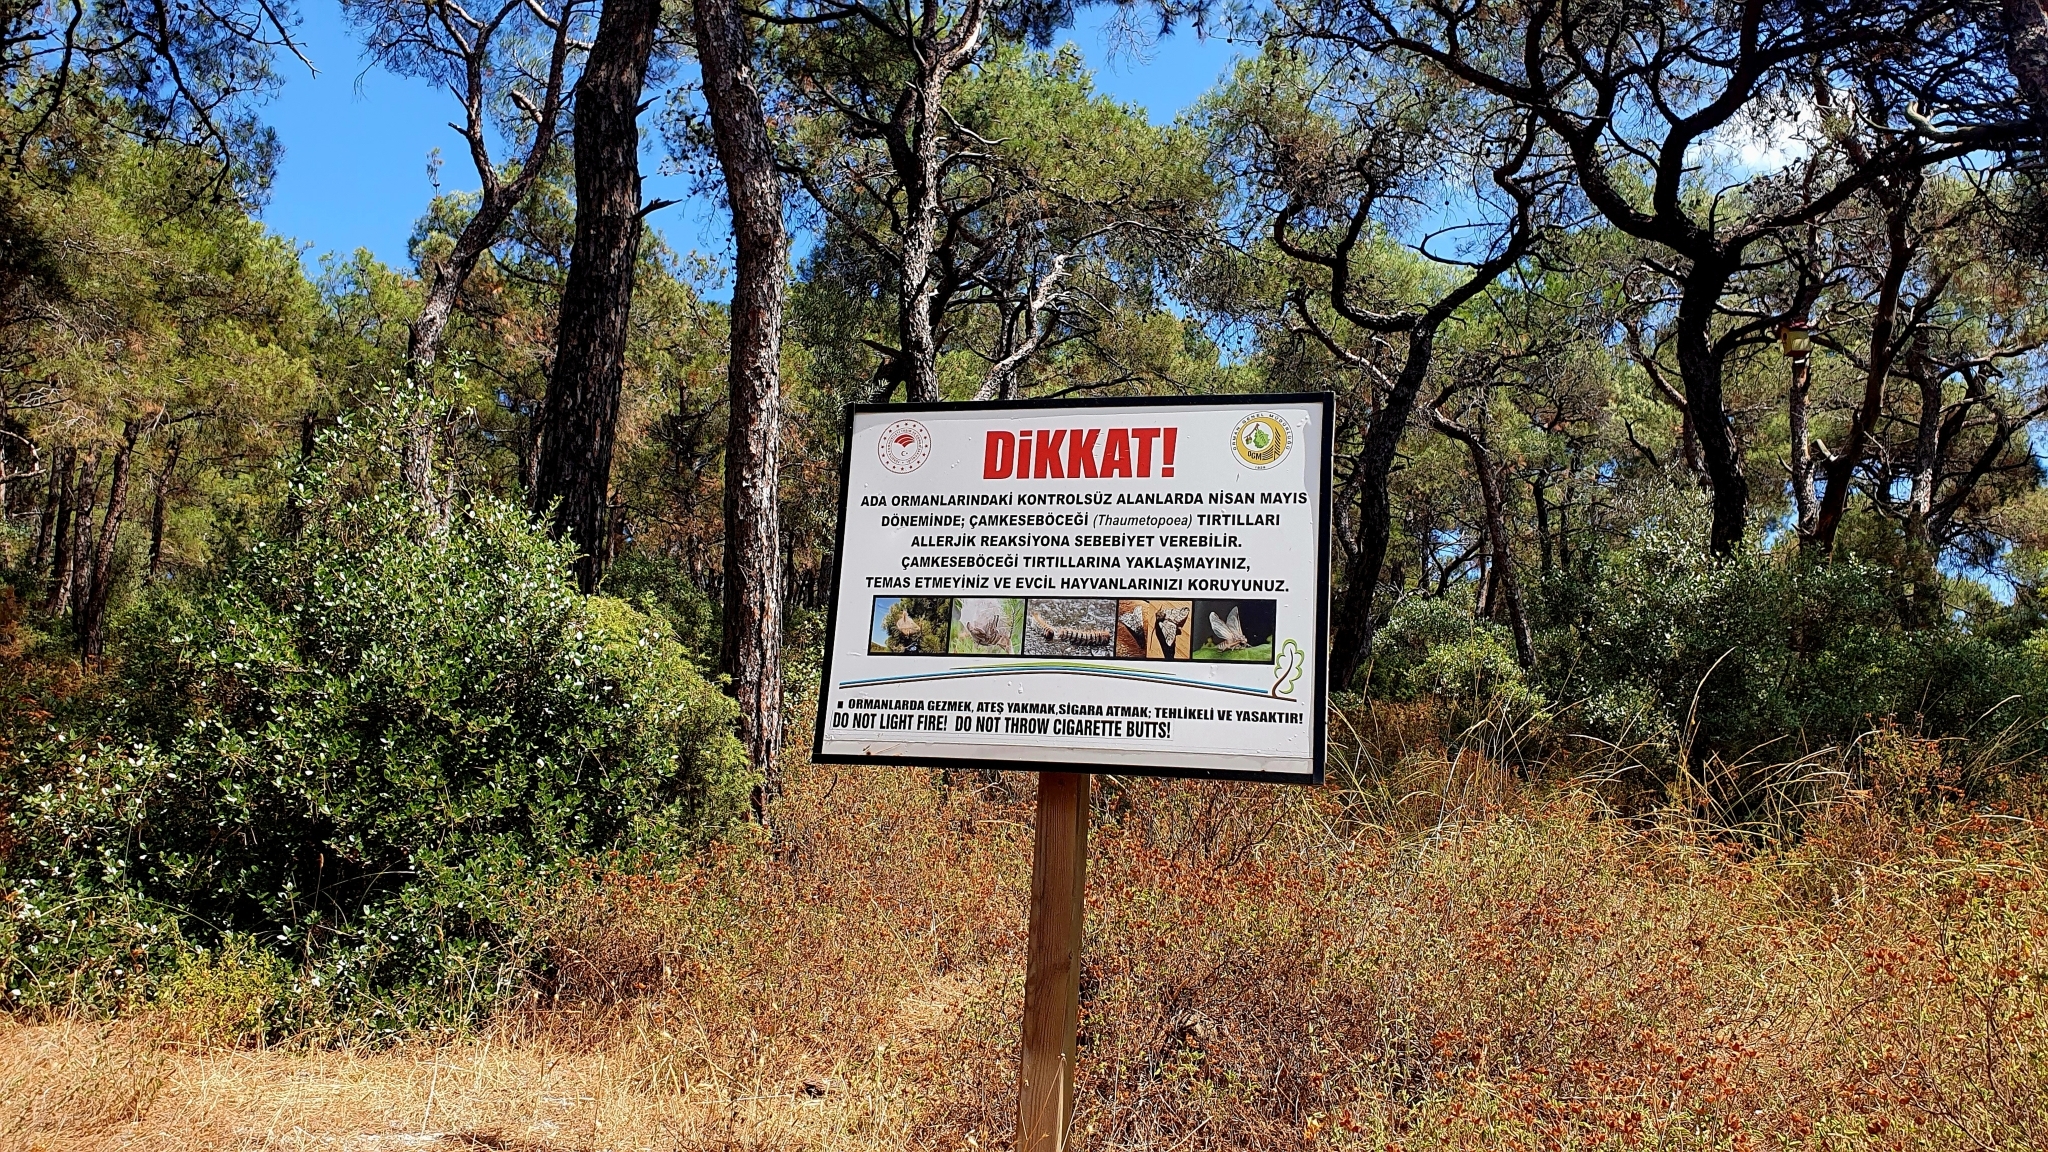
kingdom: Plantae
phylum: Tracheophyta
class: Pinopsida
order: Pinales
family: Pinaceae
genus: Pinus
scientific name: Pinus brutia
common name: Turkish pine
